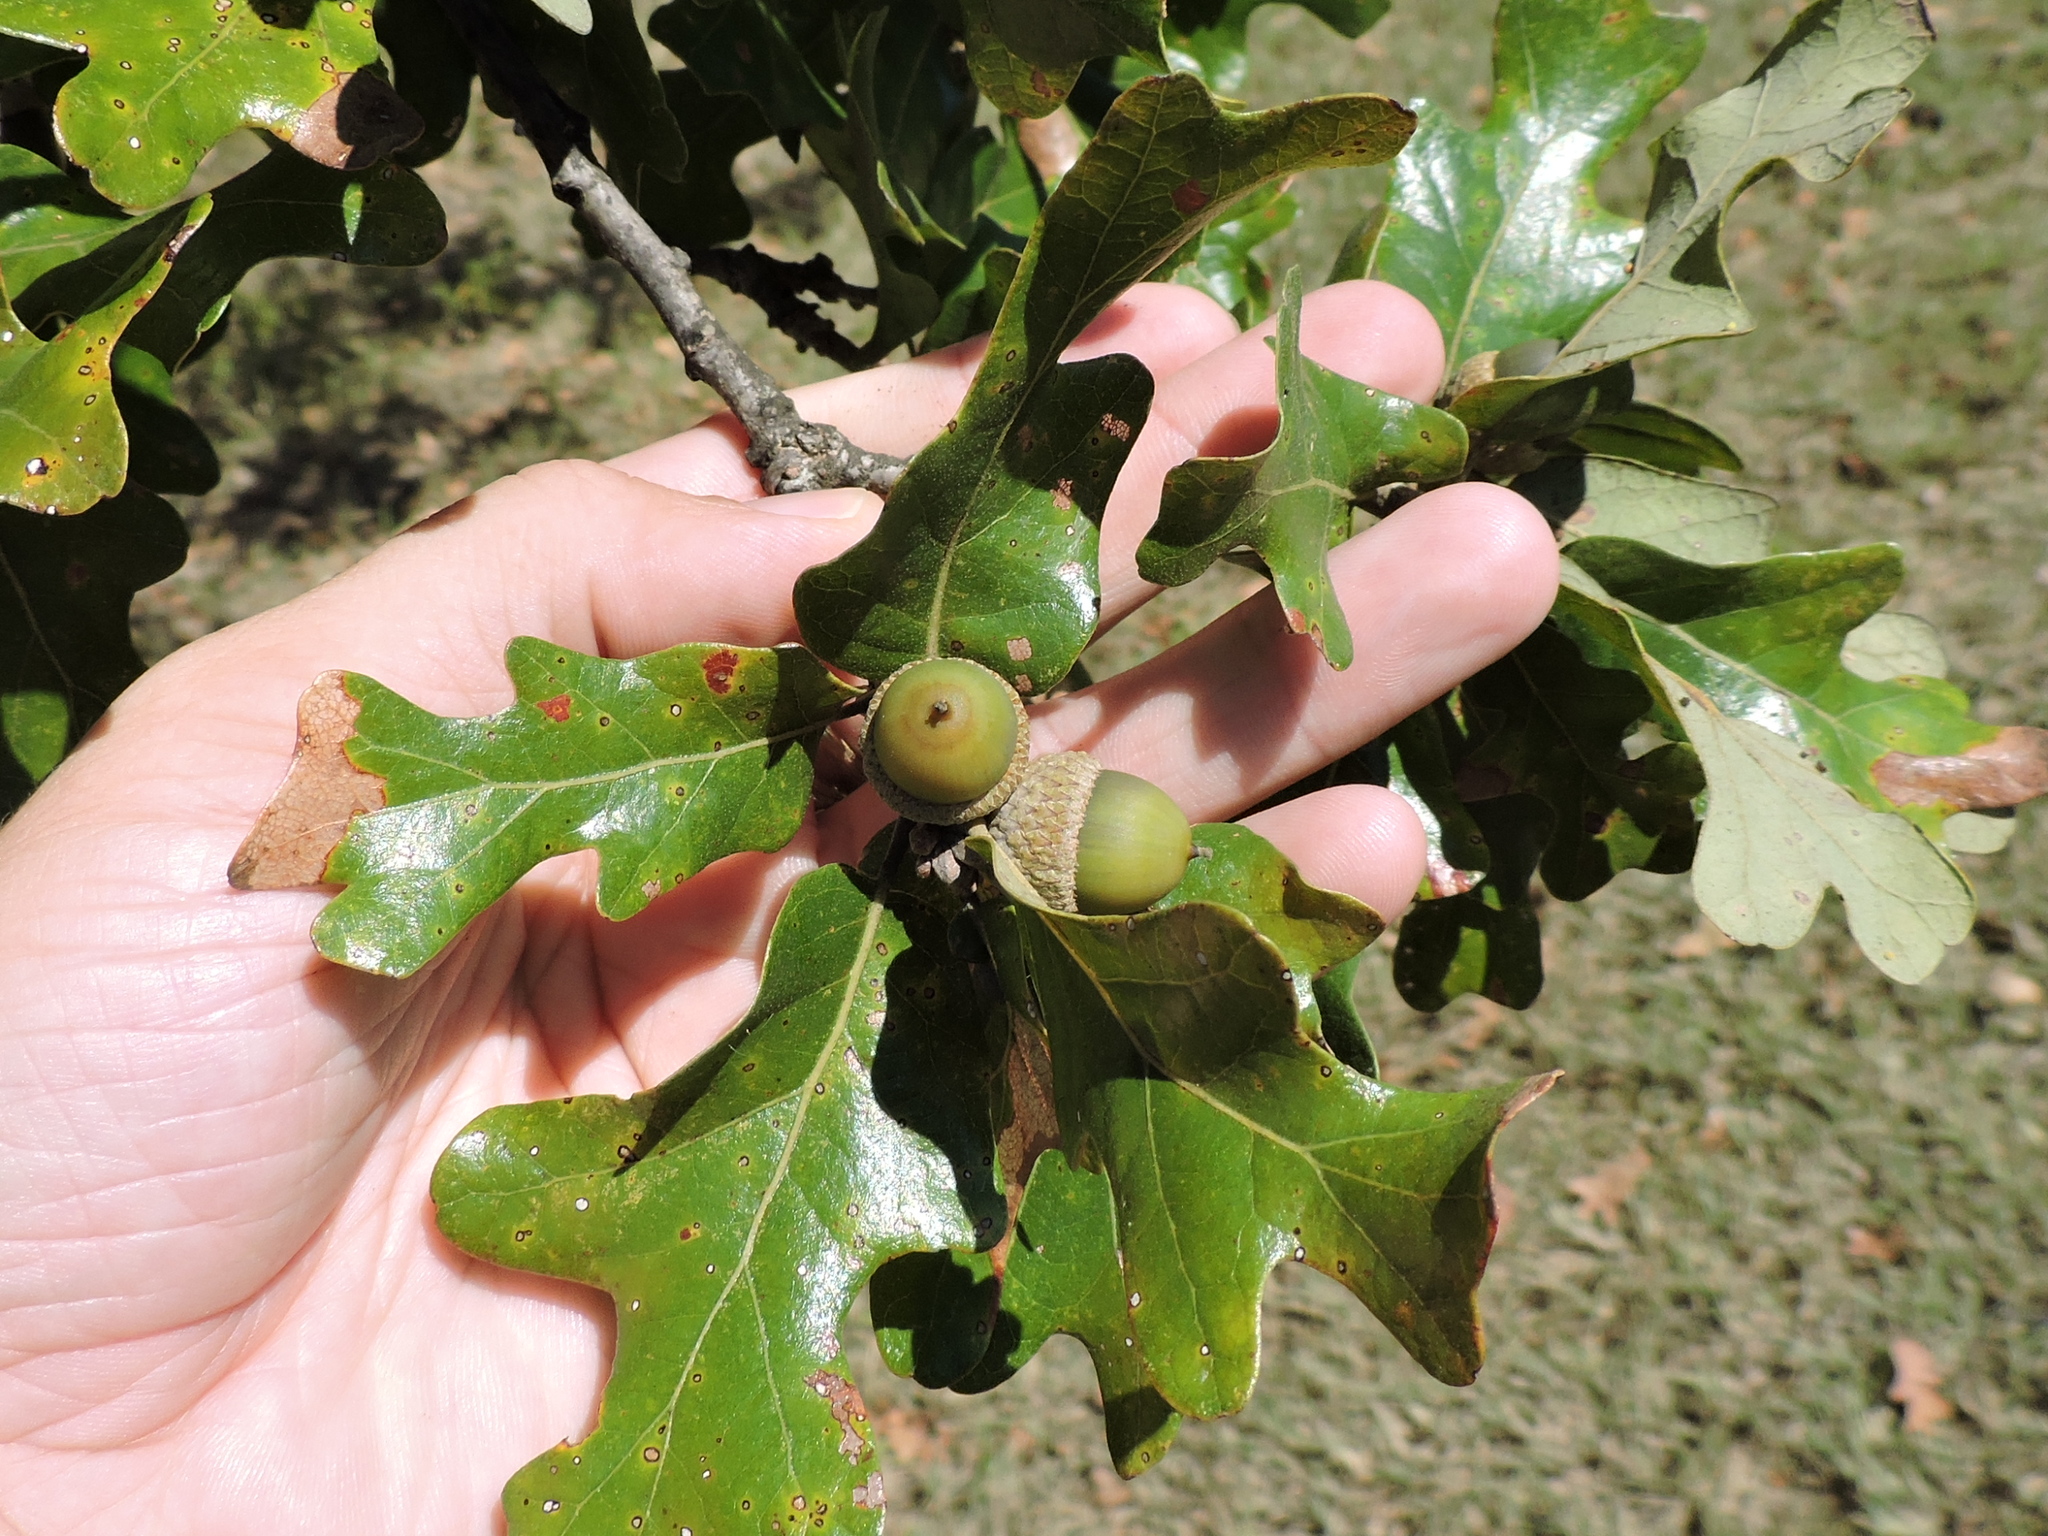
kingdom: Plantae
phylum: Tracheophyta
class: Magnoliopsida
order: Fagales
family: Fagaceae
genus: Quercus
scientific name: Quercus stellata
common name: Post oak
